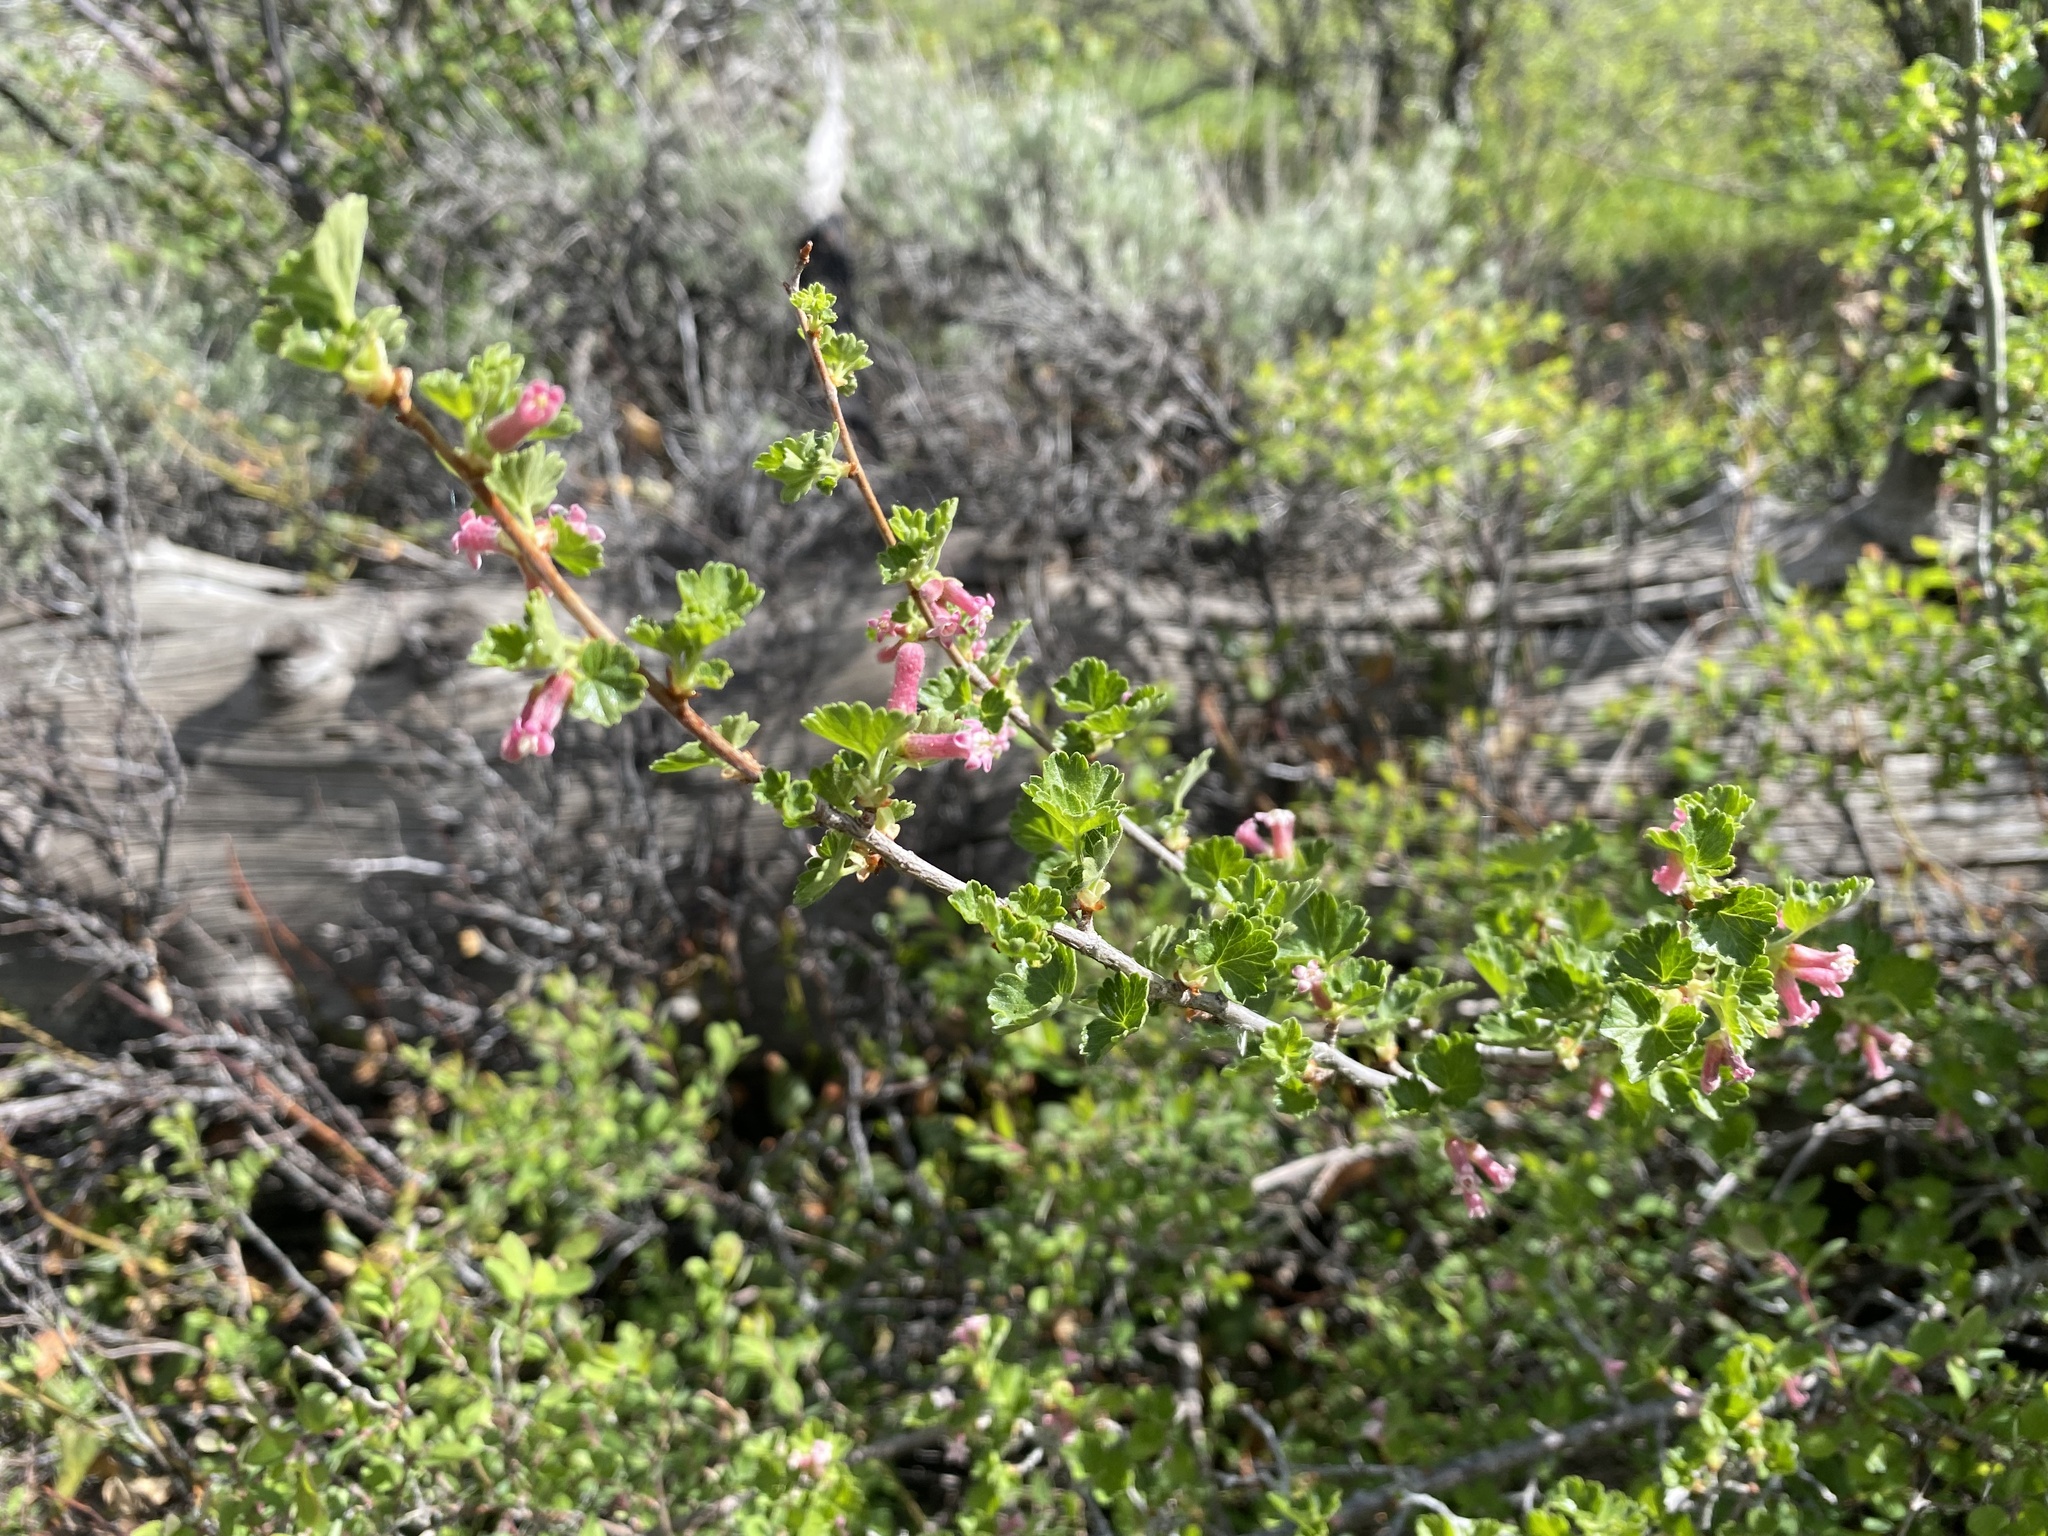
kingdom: Plantae
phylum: Tracheophyta
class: Magnoliopsida
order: Saxifragales
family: Grossulariaceae
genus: Ribes
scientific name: Ribes cereum
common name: Wax currant
